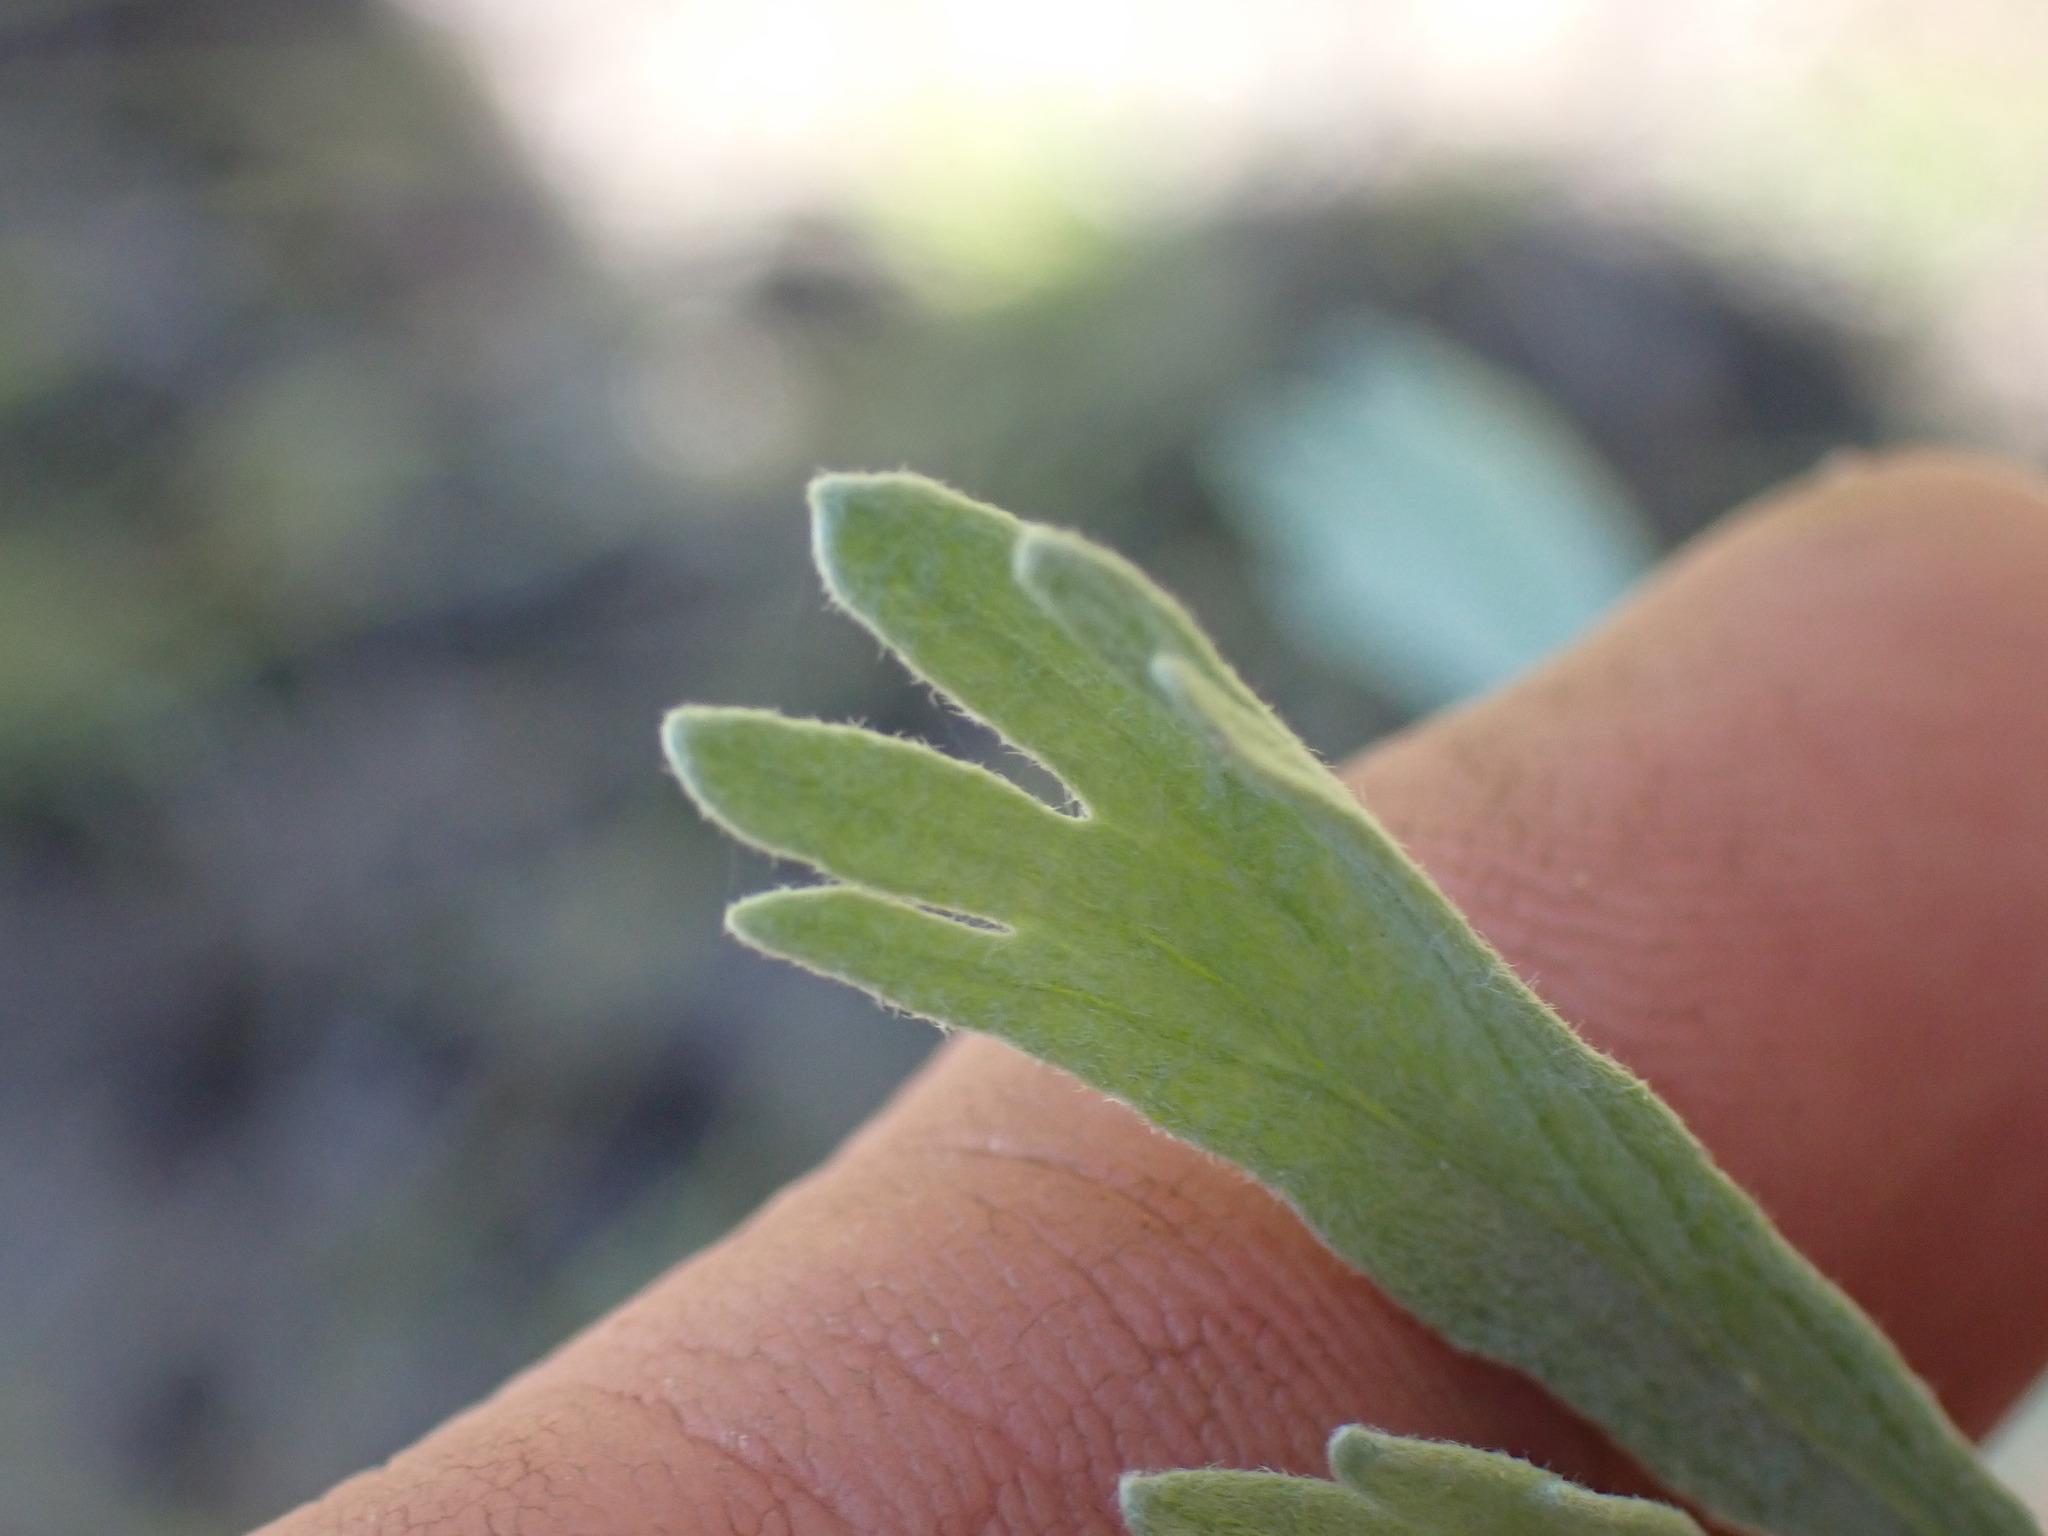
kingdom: Plantae
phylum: Tracheophyta
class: Magnoliopsida
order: Asterales
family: Asteraceae
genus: Artemisia
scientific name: Artemisia tridentata
